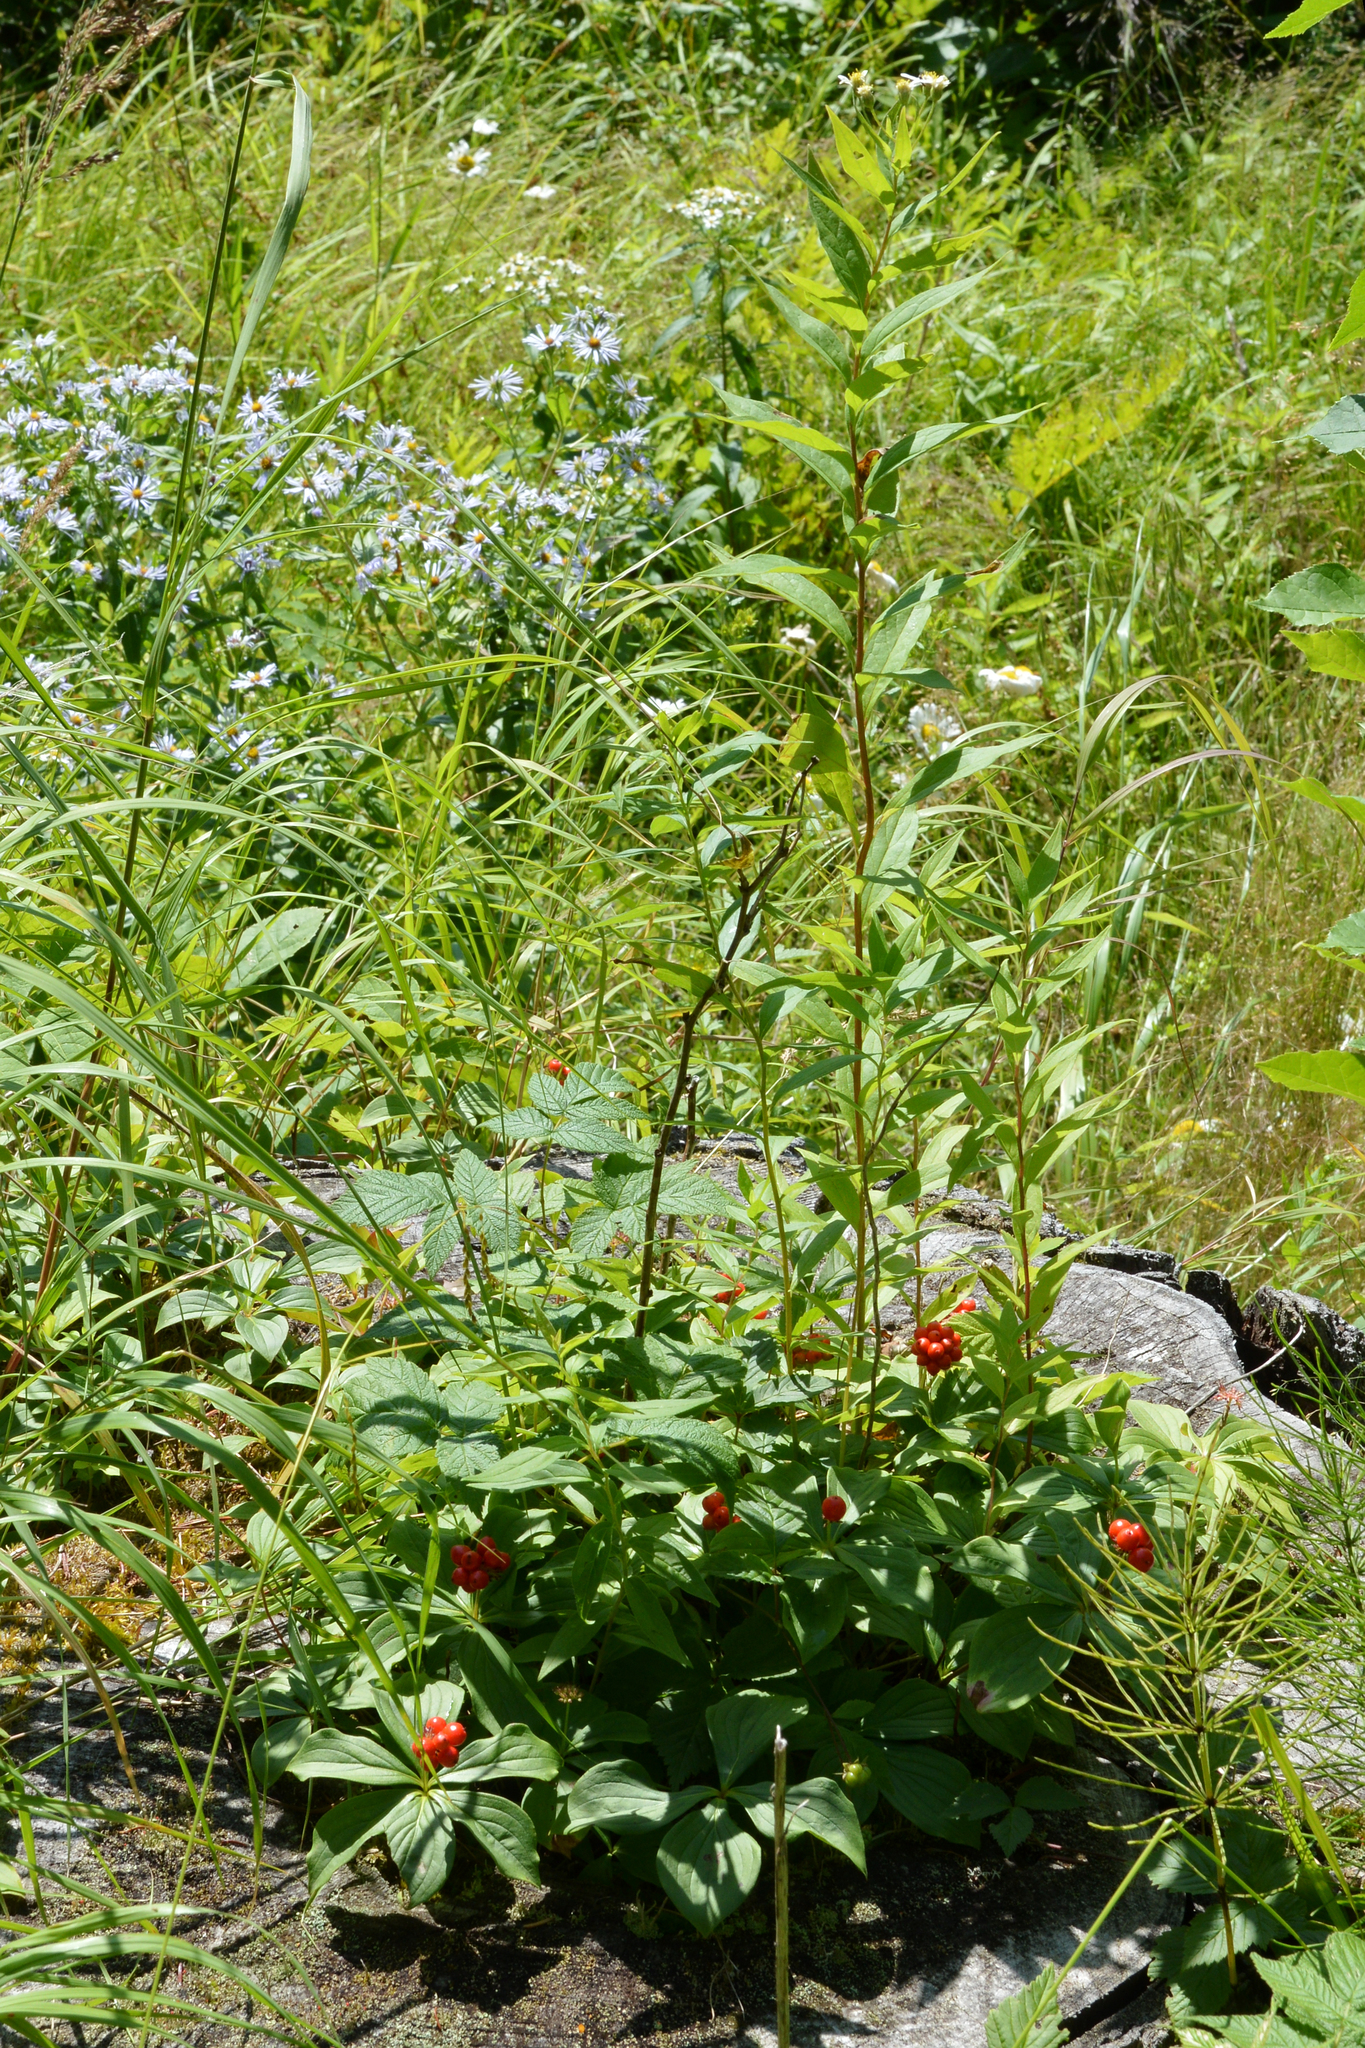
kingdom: Plantae
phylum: Tracheophyta
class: Magnoliopsida
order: Cornales
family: Cornaceae
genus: Cornus
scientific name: Cornus canadensis
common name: Creeping dogwood
